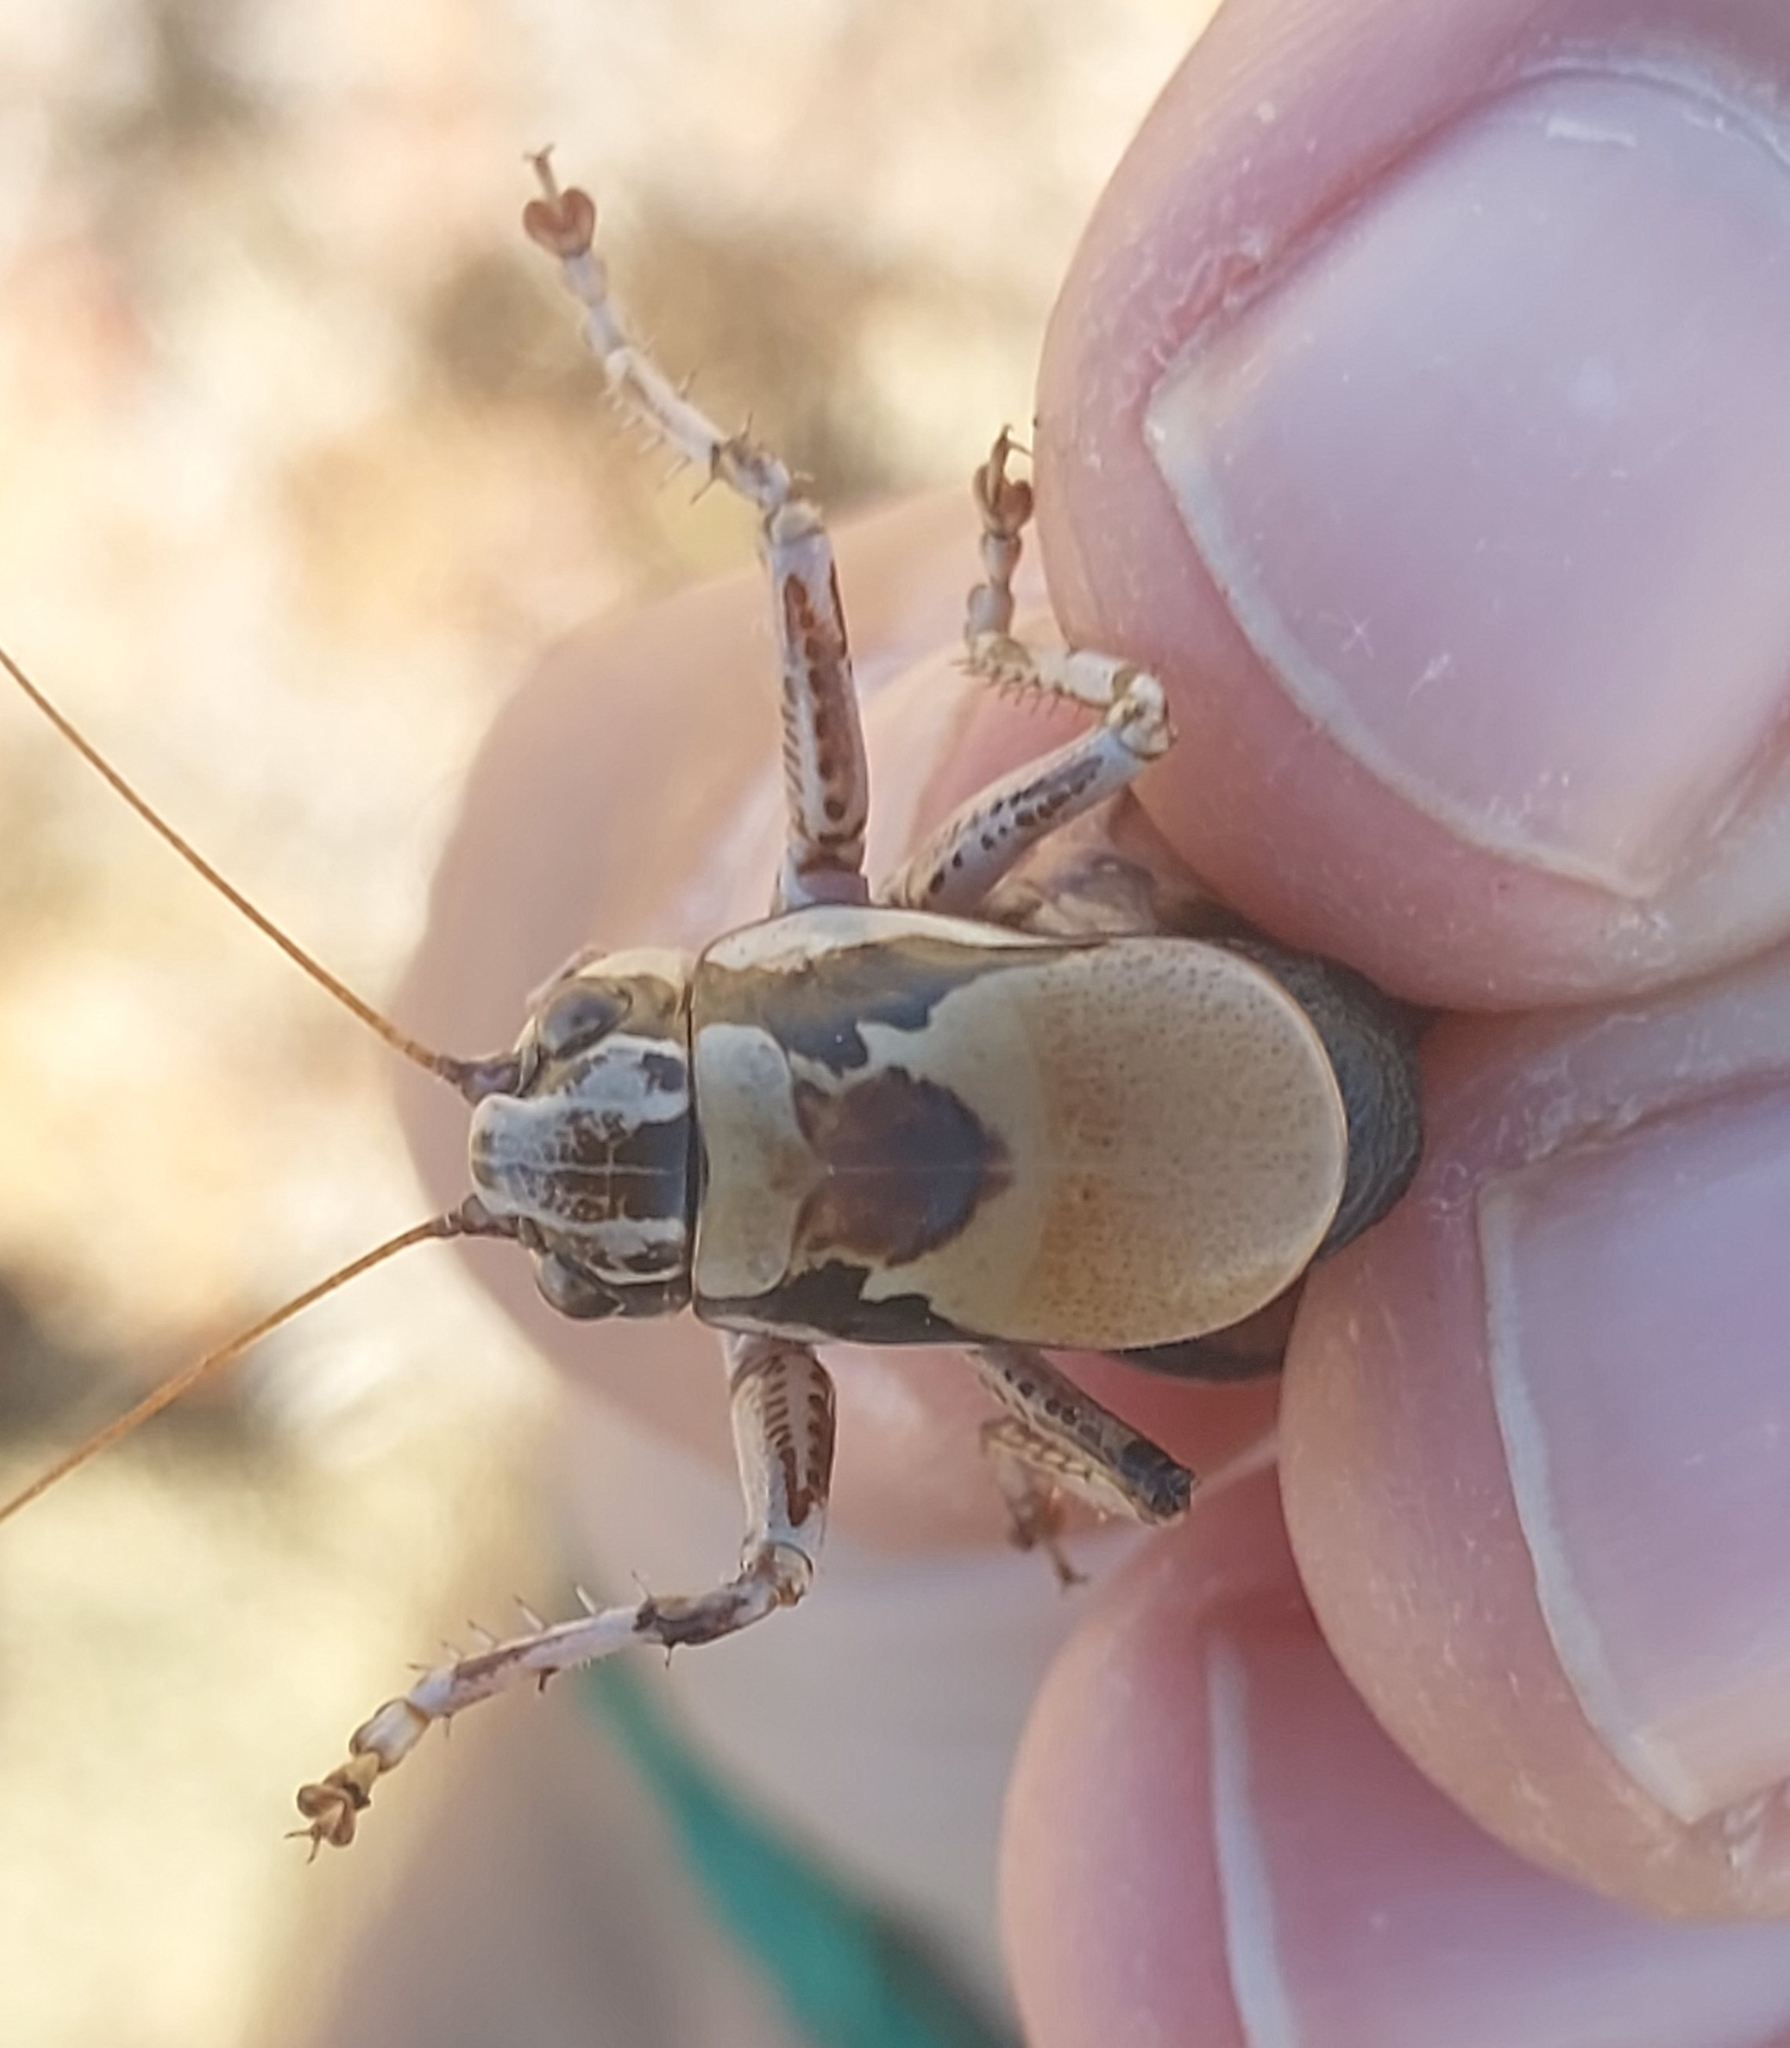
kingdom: Animalia
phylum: Arthropoda
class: Insecta
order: Orthoptera
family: Tettigoniidae
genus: Eupholidoptera
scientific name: Eupholidoptera astyla
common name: Mount ida marbled bush-cricket
